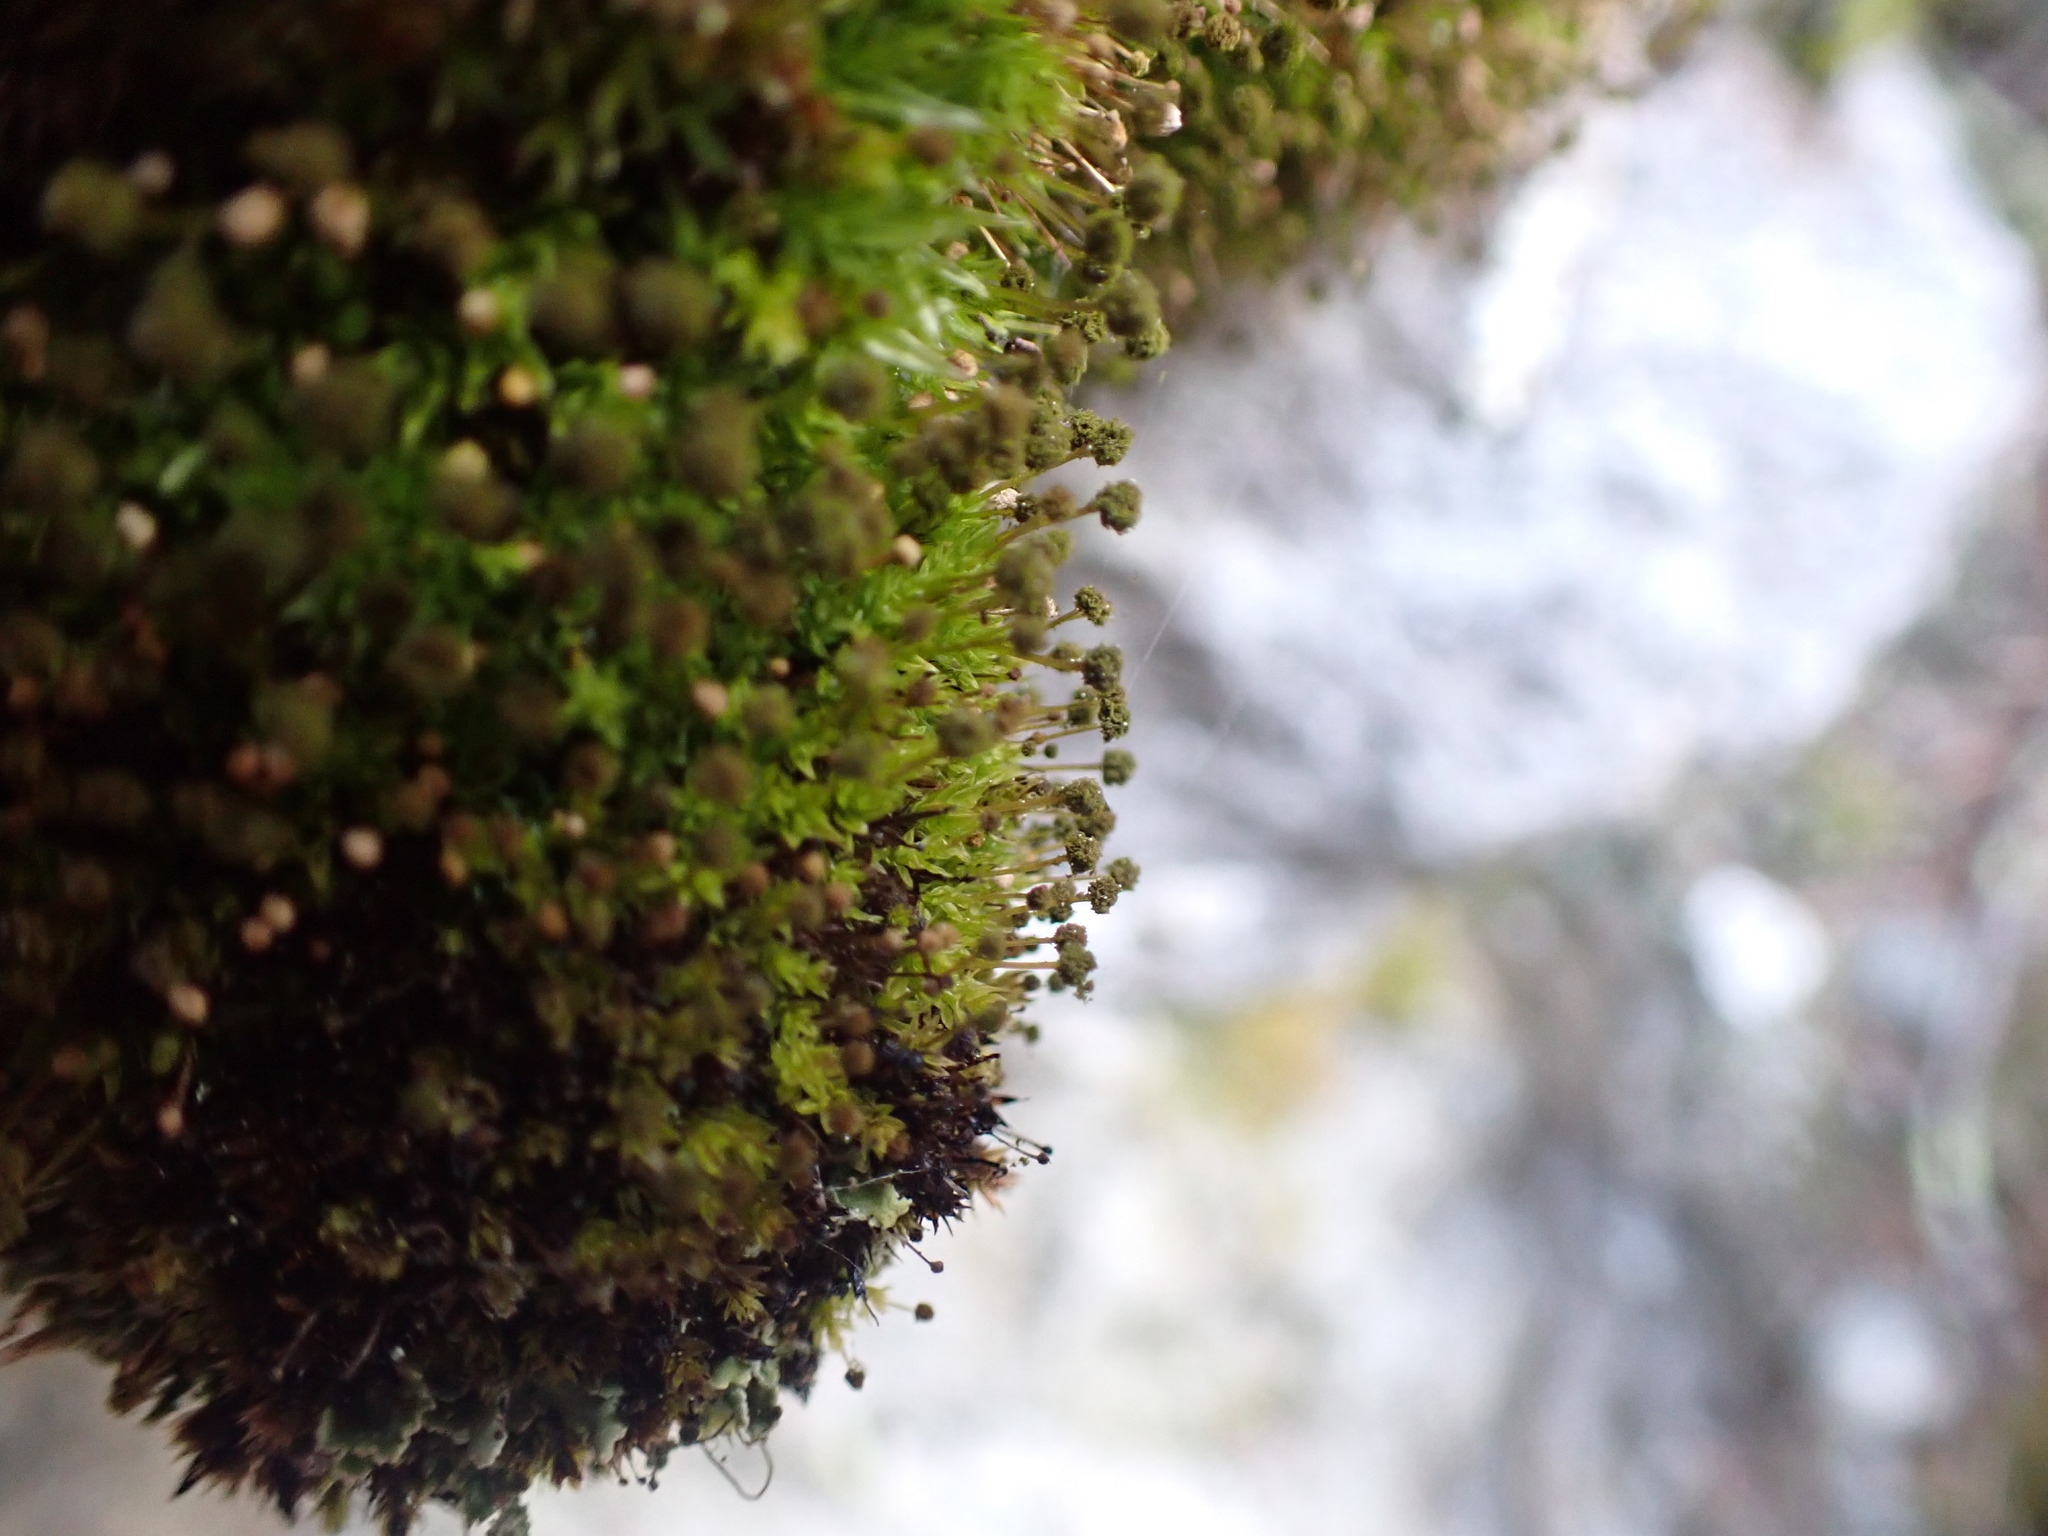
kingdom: Plantae
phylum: Bryophyta
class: Bryopsida
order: Aulacomniales
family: Aulacomniaceae
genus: Aulacomnium
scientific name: Aulacomnium androgynum
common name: Little groove moss
